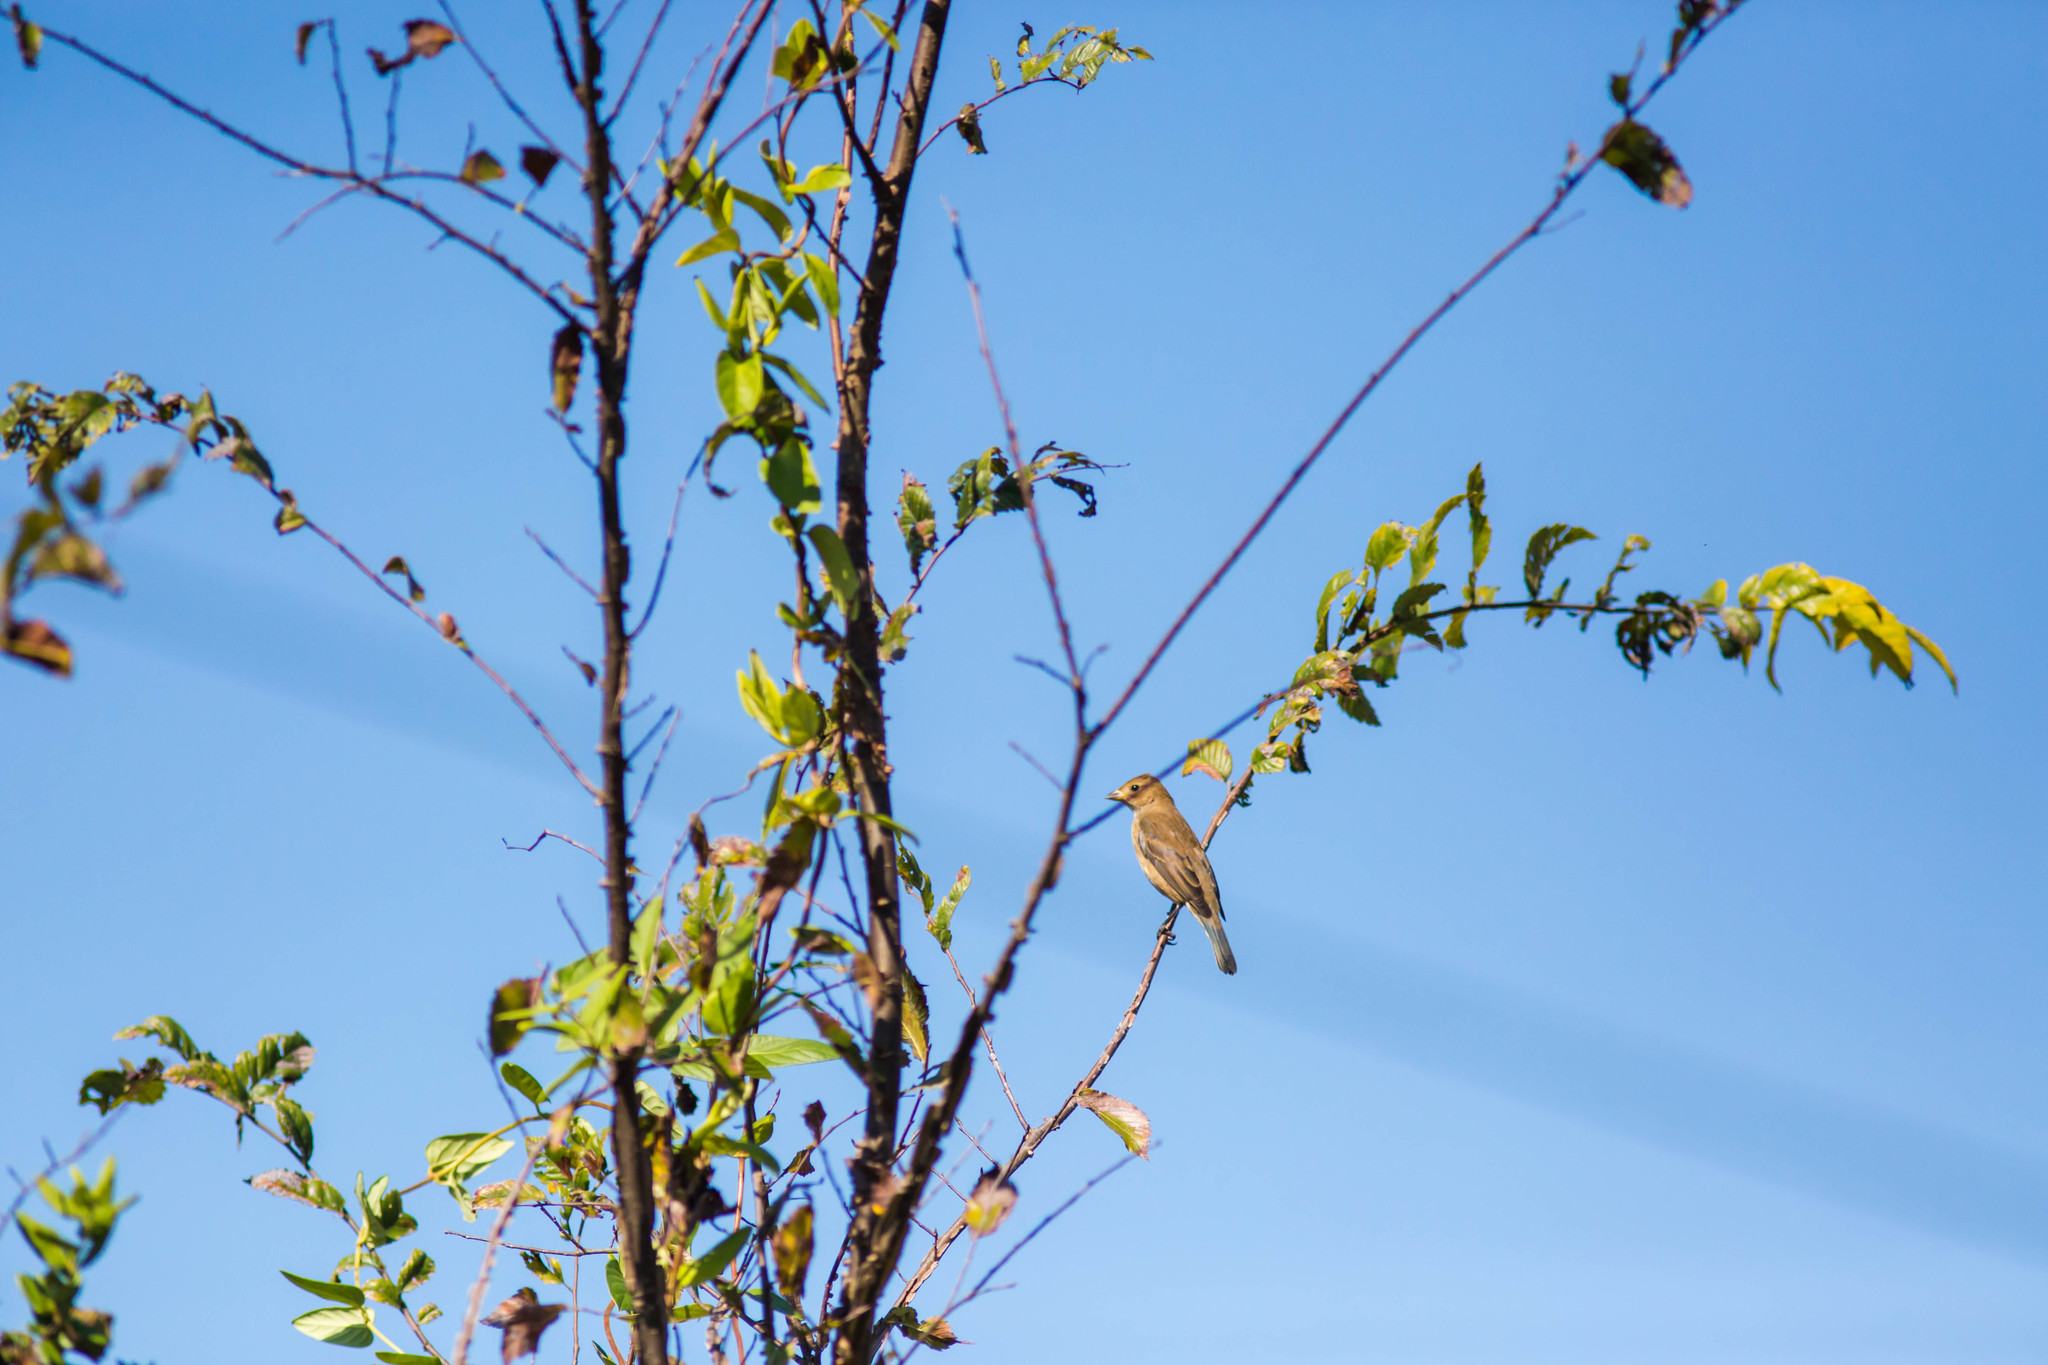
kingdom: Animalia
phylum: Chordata
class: Aves
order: Passeriformes
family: Cardinalidae
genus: Passerina
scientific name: Passerina cyanea
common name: Indigo bunting
